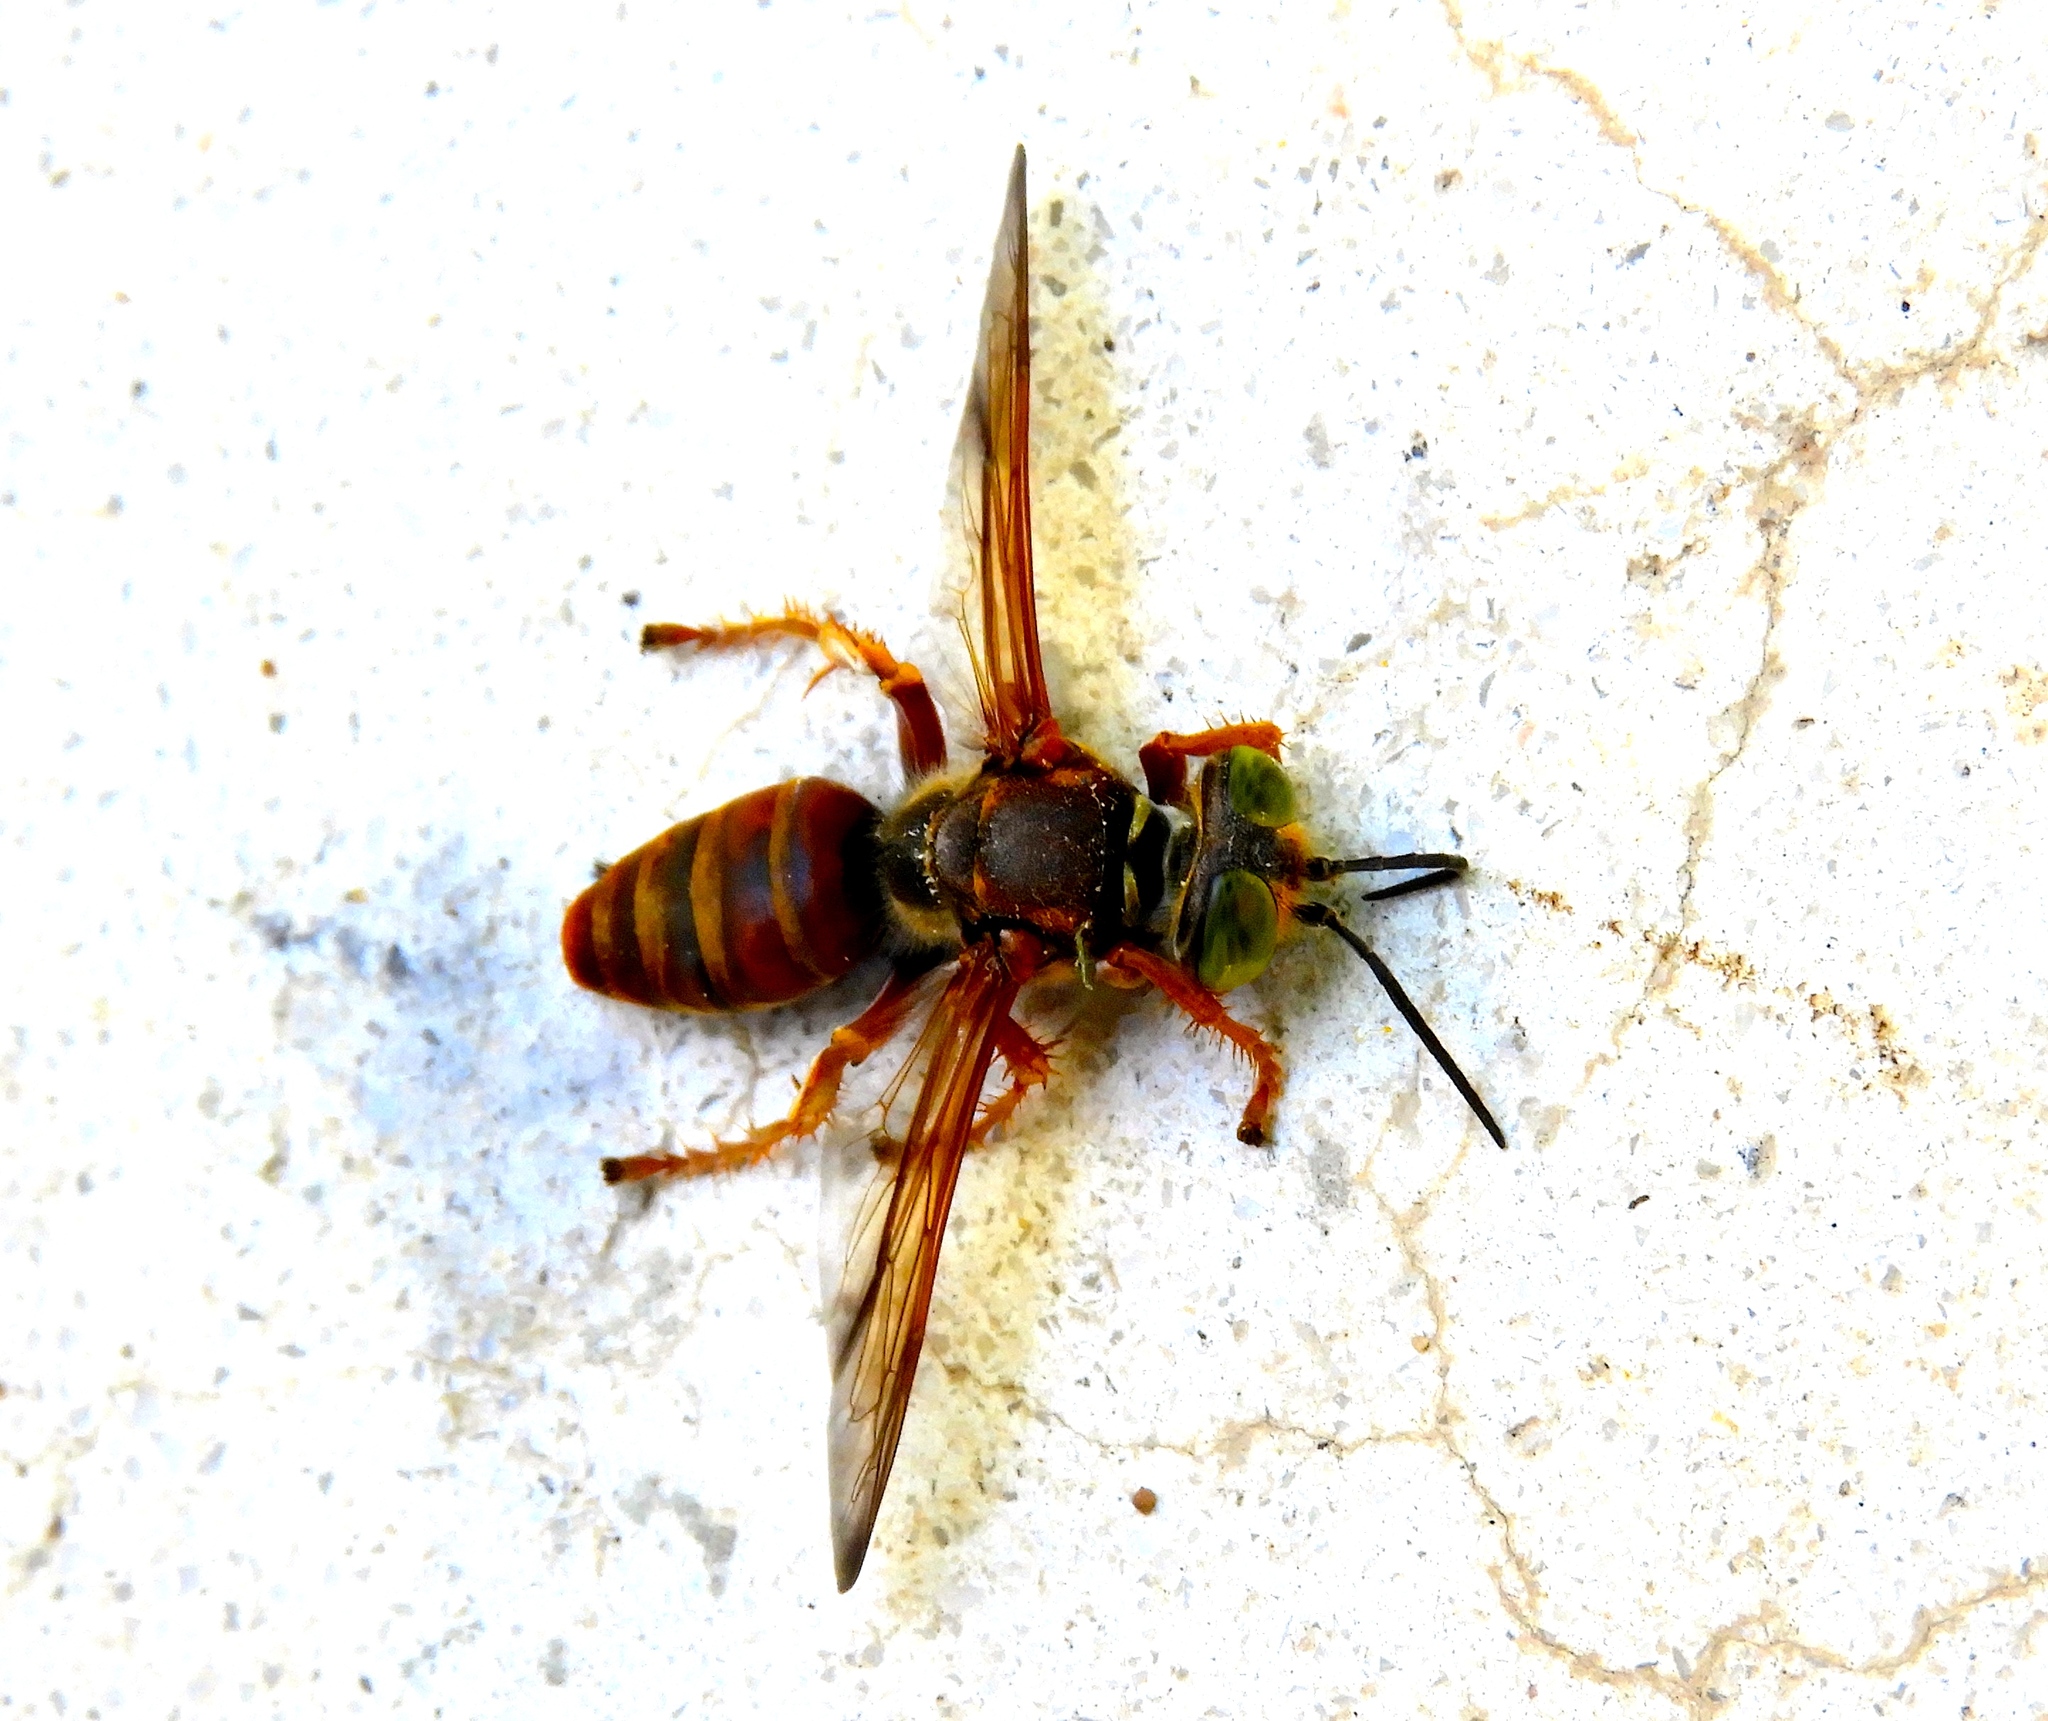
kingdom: Animalia
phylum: Arthropoda
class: Insecta
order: Hymenoptera
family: Crabronidae
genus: Tachytes
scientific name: Tachytes
